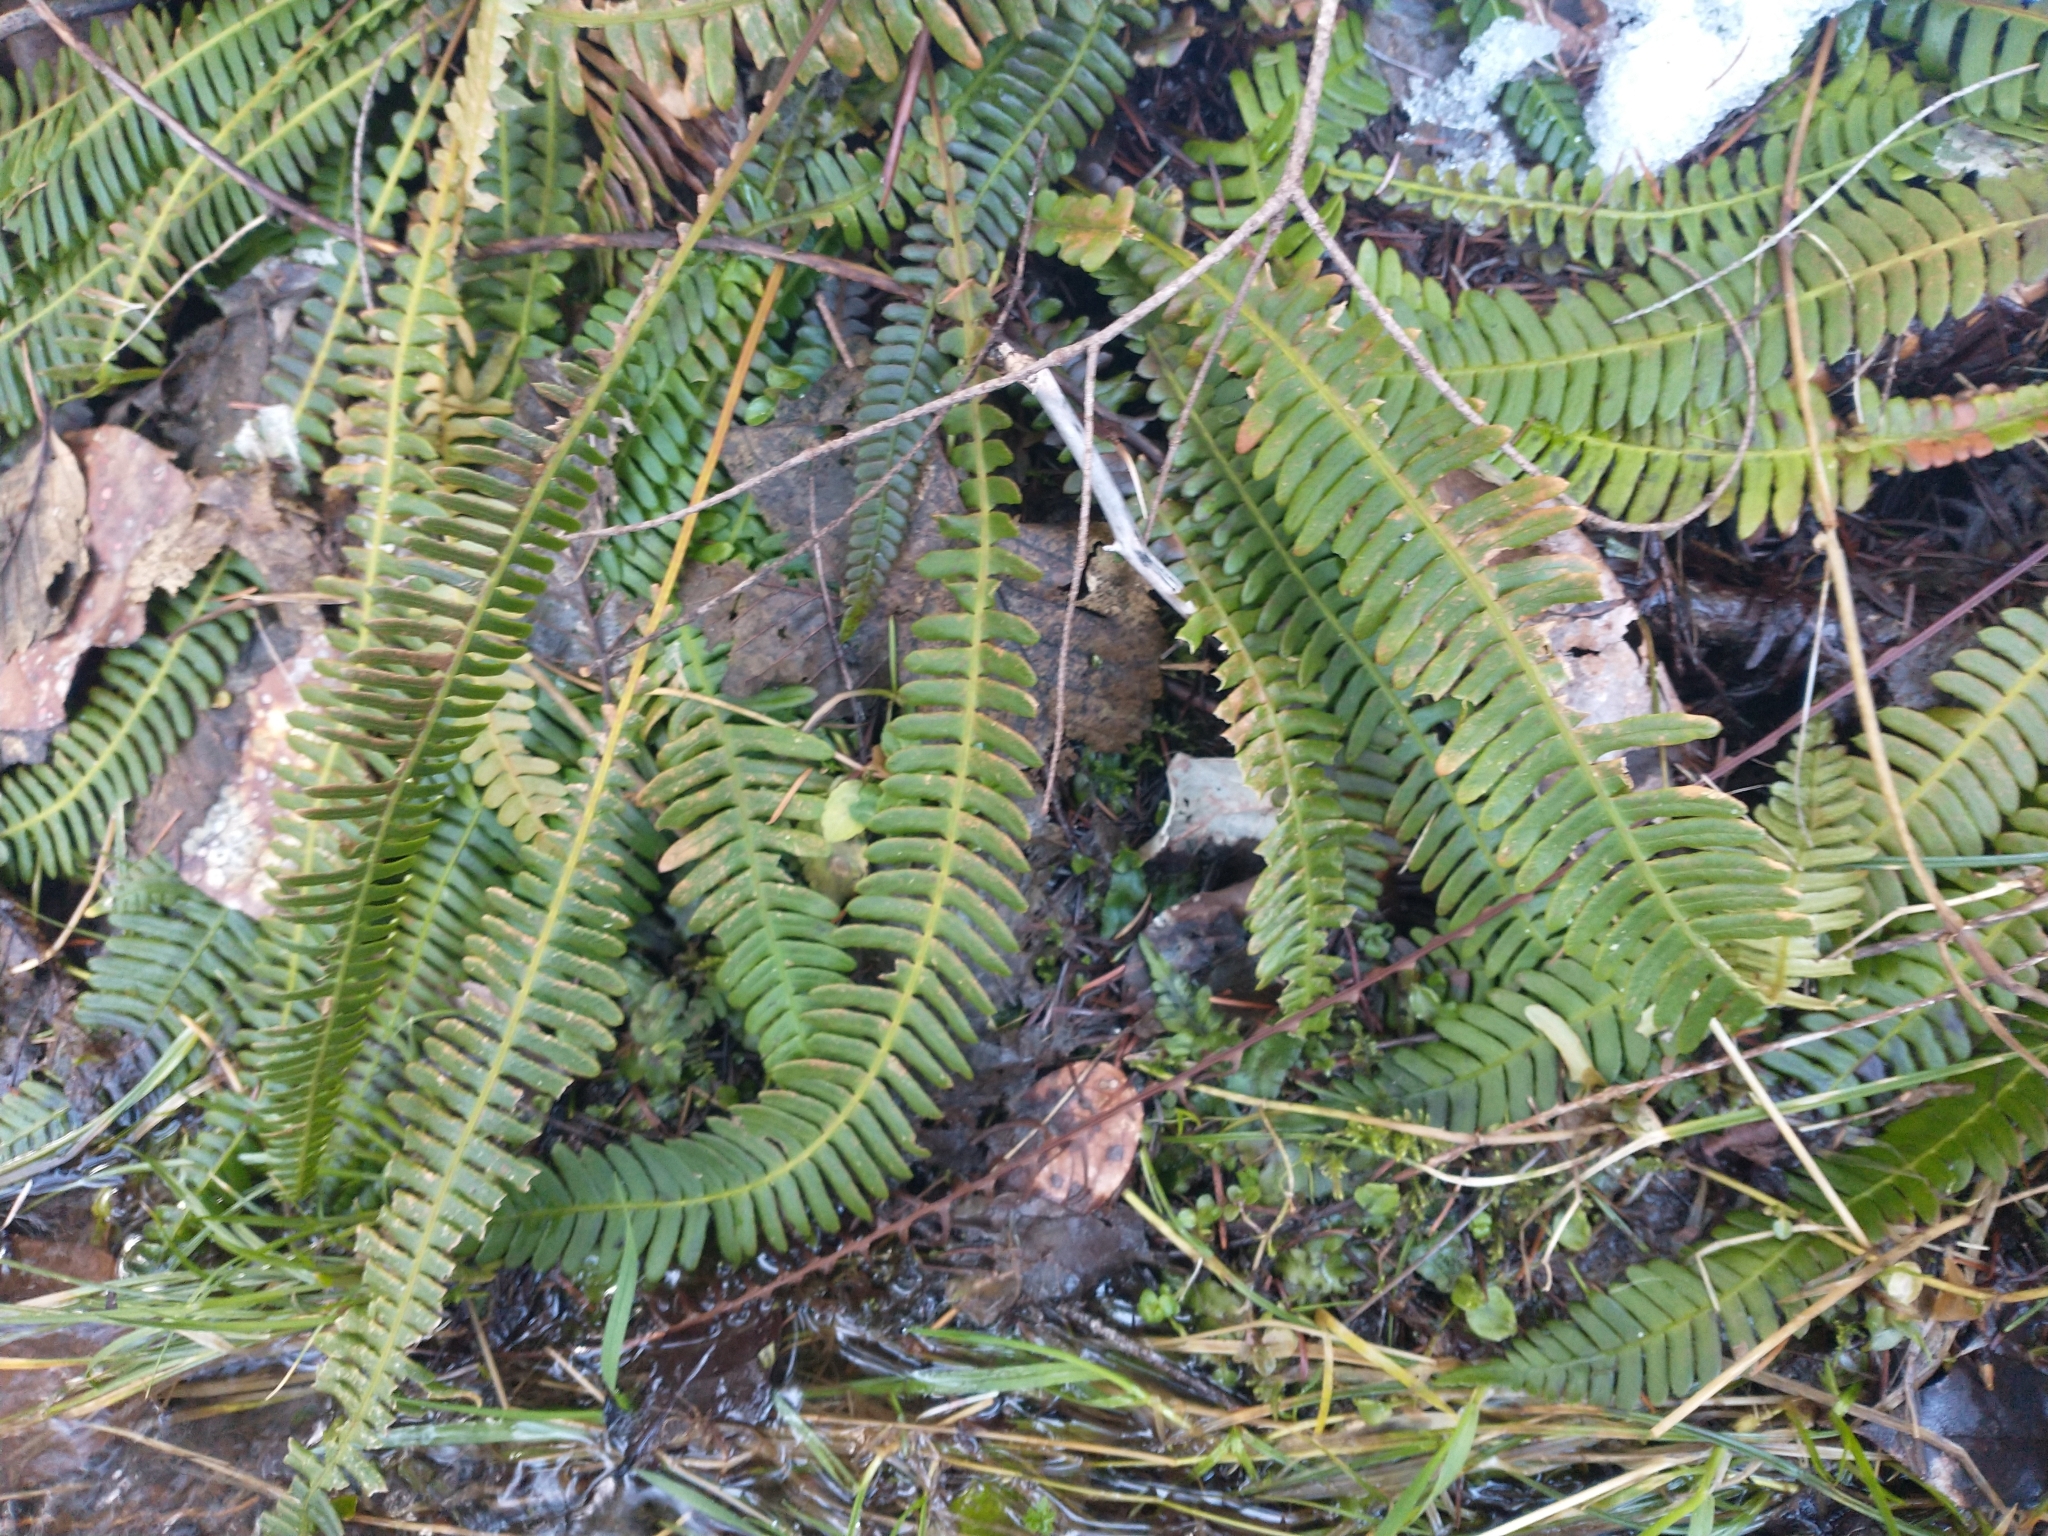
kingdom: Plantae
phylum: Tracheophyta
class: Polypodiopsida
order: Polypodiales
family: Blechnaceae
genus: Struthiopteris
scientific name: Struthiopteris spicant
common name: Deer fern
